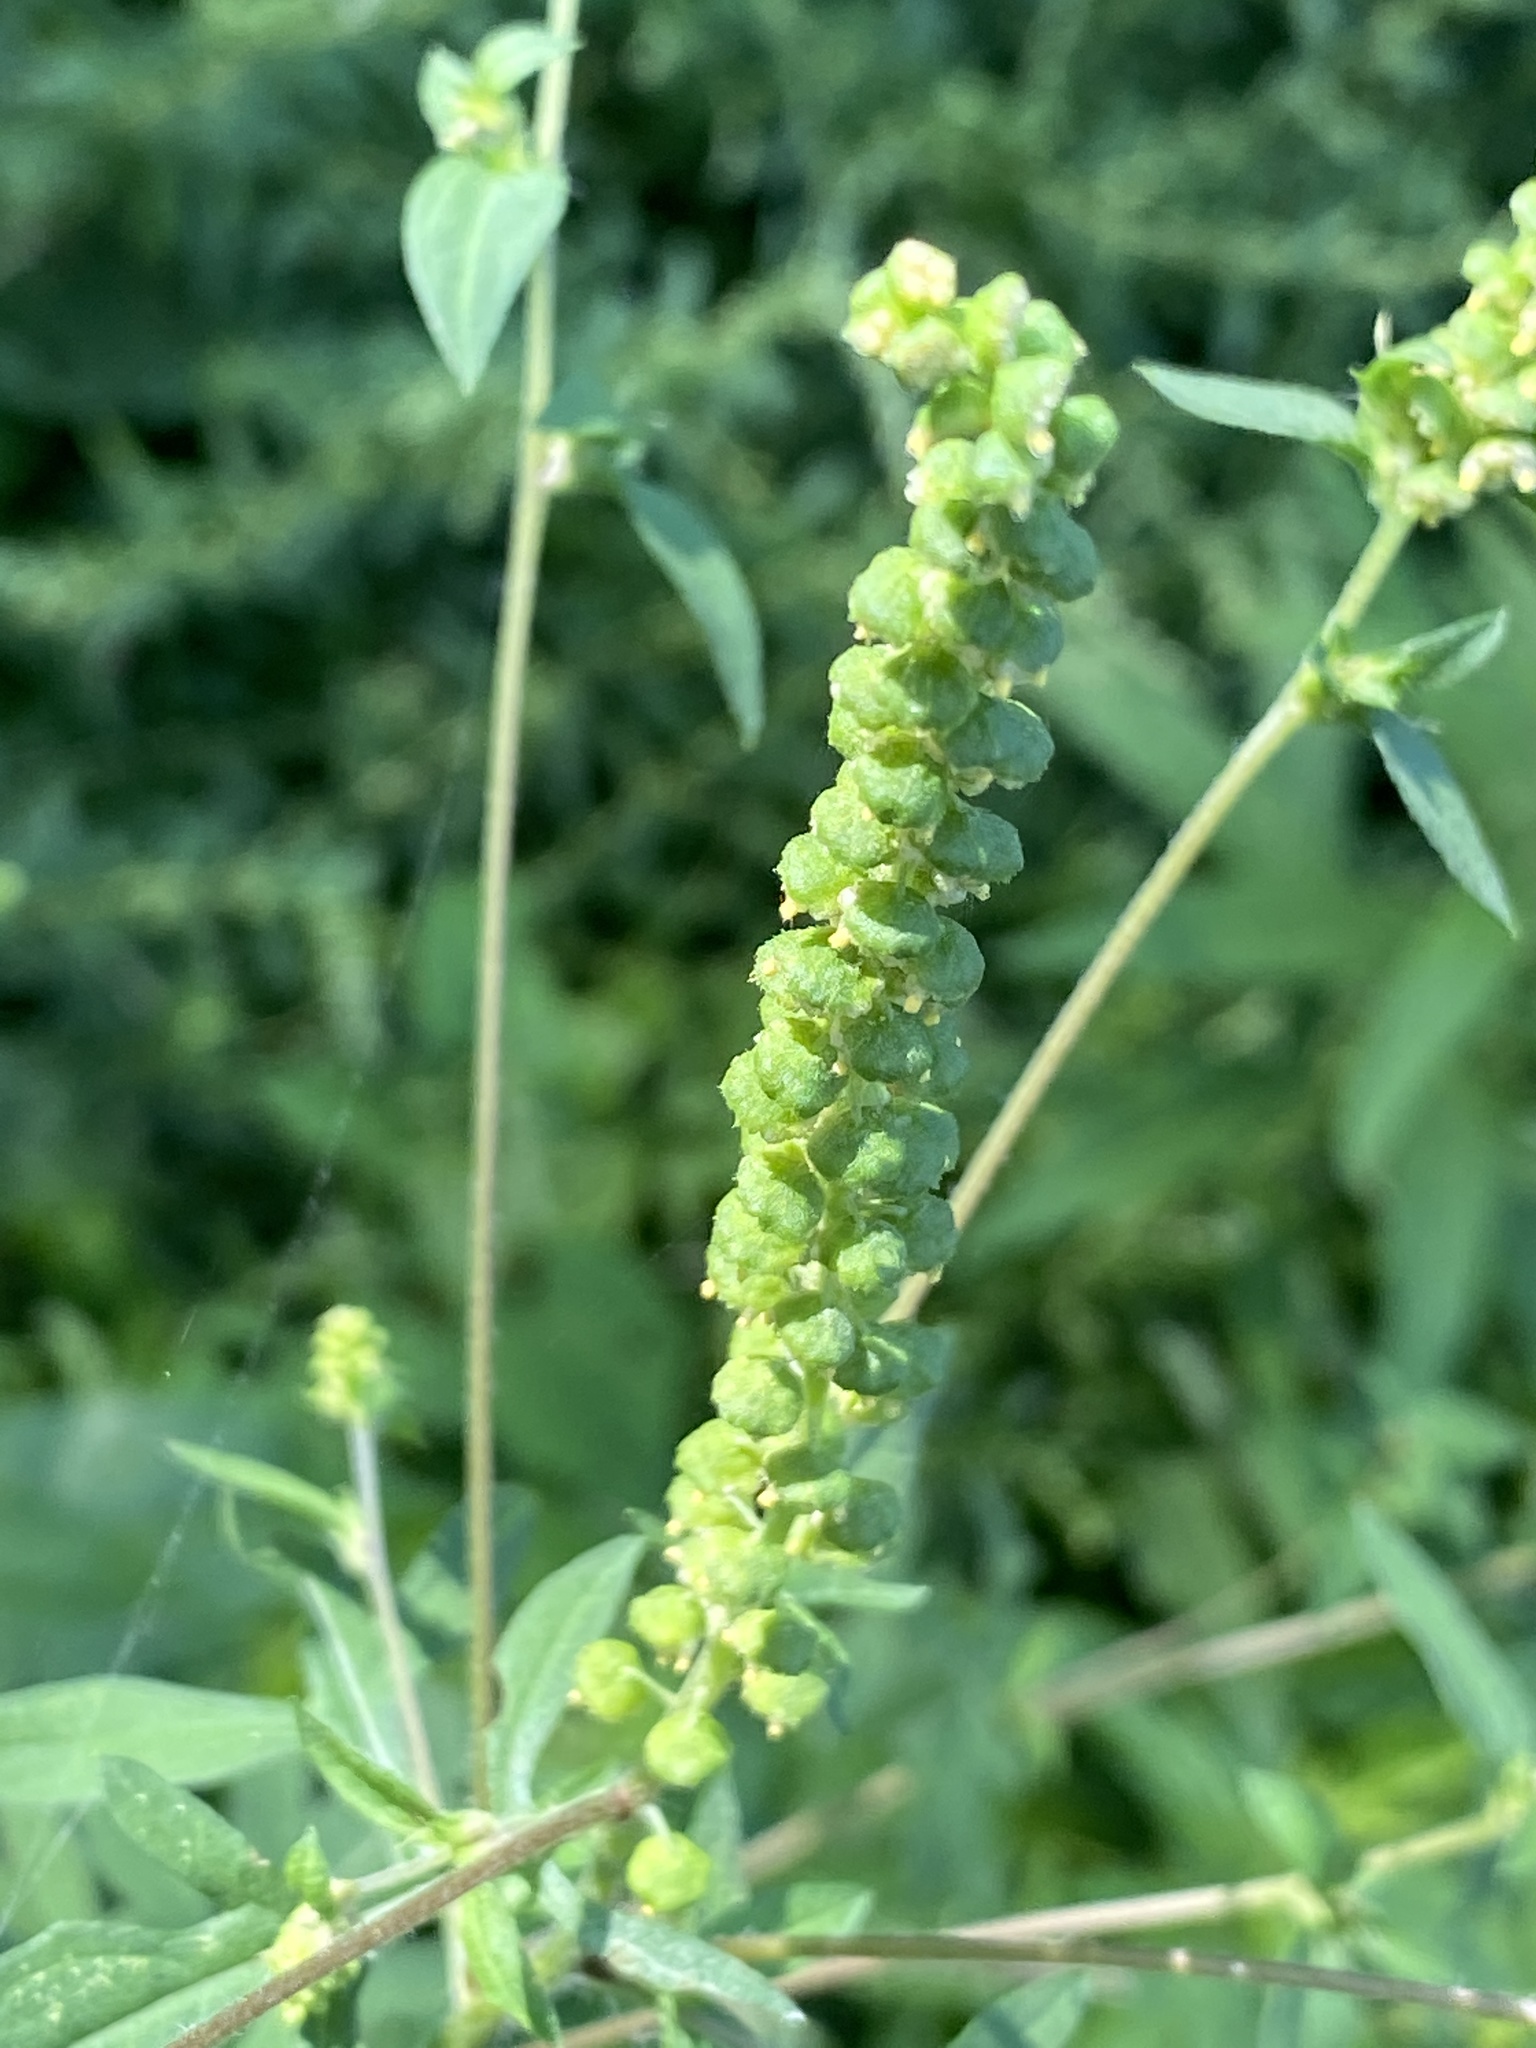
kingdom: Plantae
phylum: Tracheophyta
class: Magnoliopsida
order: Asterales
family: Asteraceae
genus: Ambrosia
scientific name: Ambrosia artemisiifolia
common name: Annual ragweed
